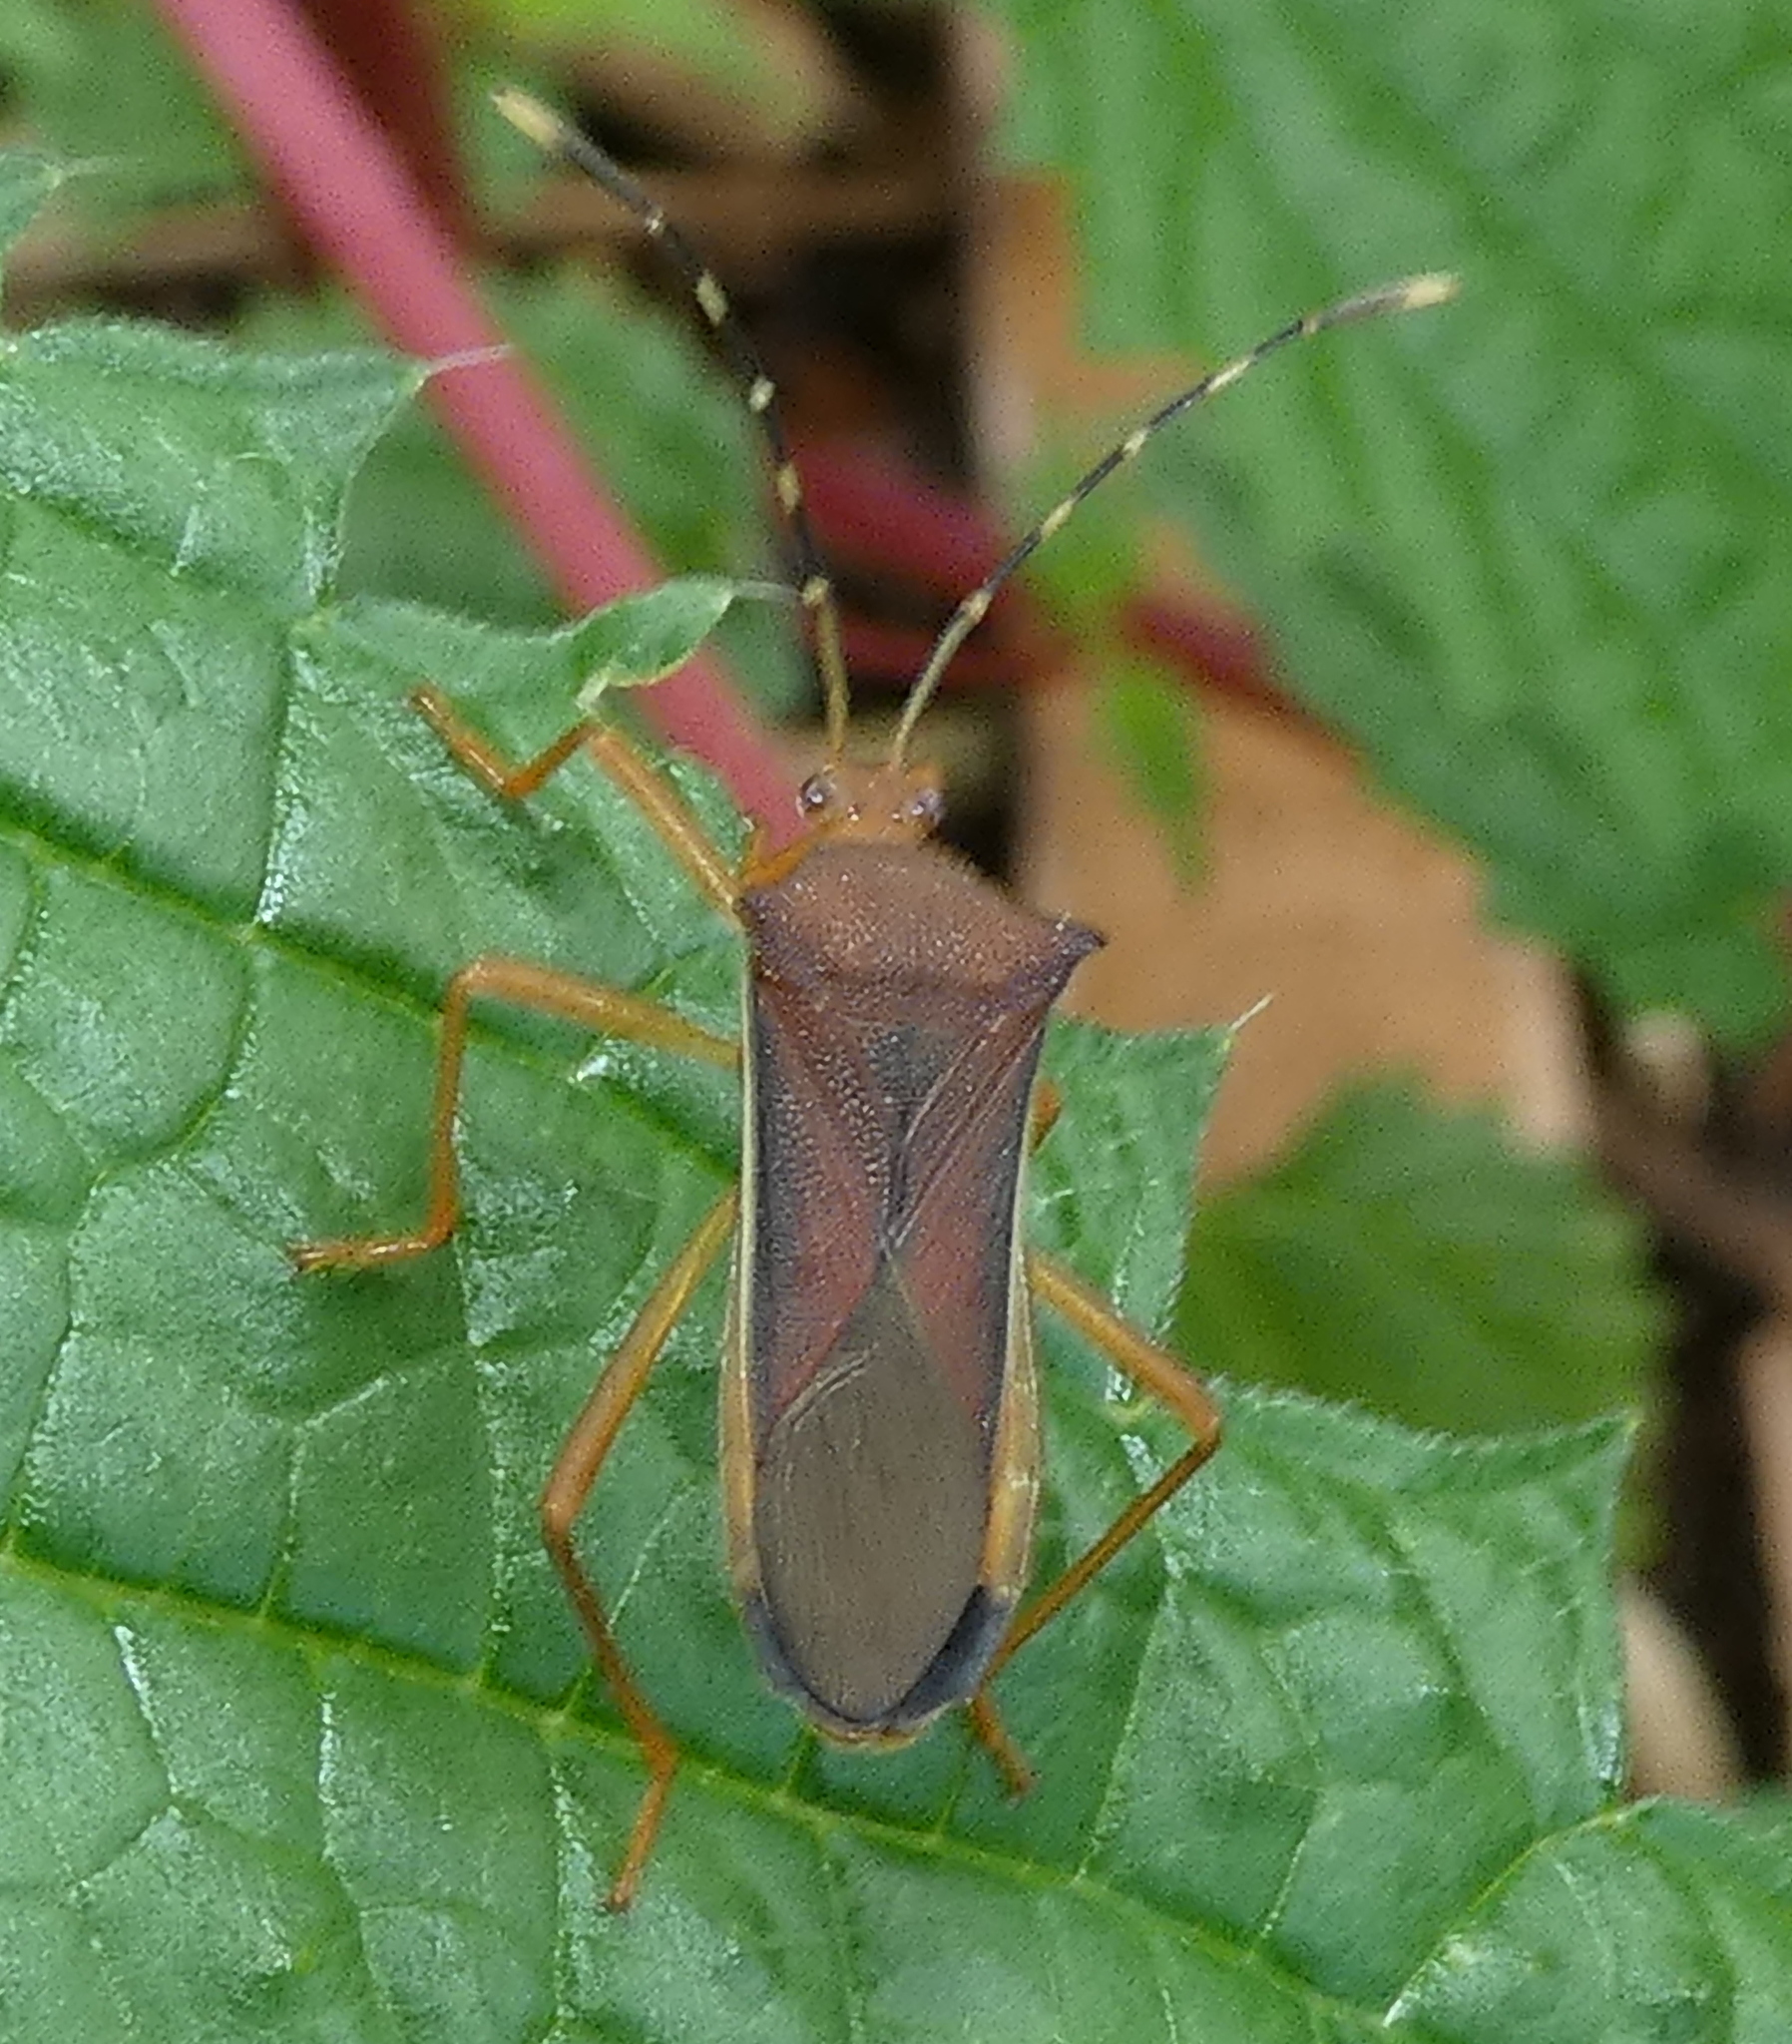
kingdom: Animalia
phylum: Arthropoda
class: Insecta
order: Hemiptera
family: Coreidae
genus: Anasa
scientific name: Anasa varicornis
